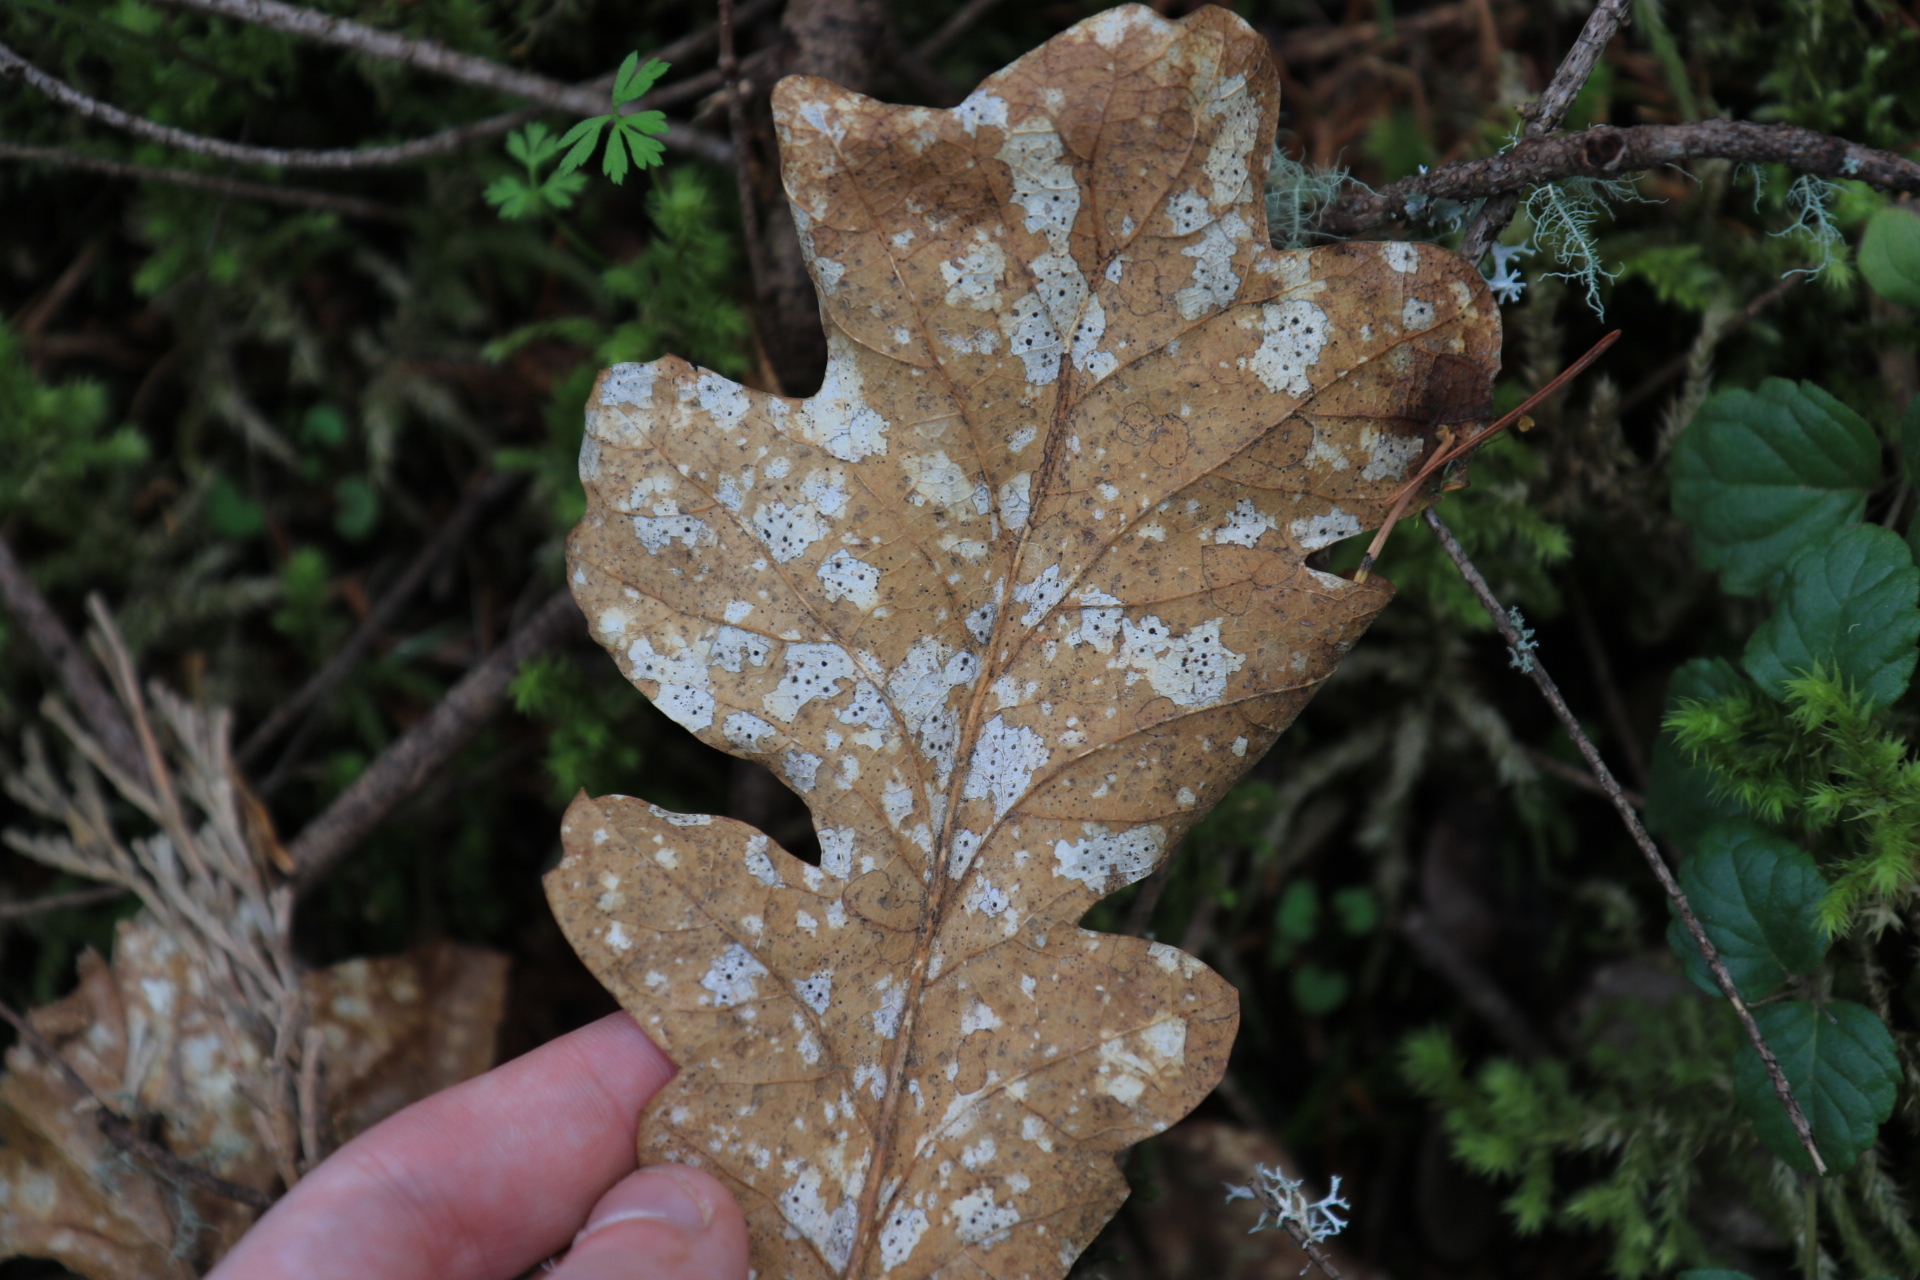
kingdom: Fungi
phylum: Ascomycota
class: Leotiomycetes
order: Rhytismatales
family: Rhytismataceae
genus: Coccomyces
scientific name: Coccomyces dentatus
